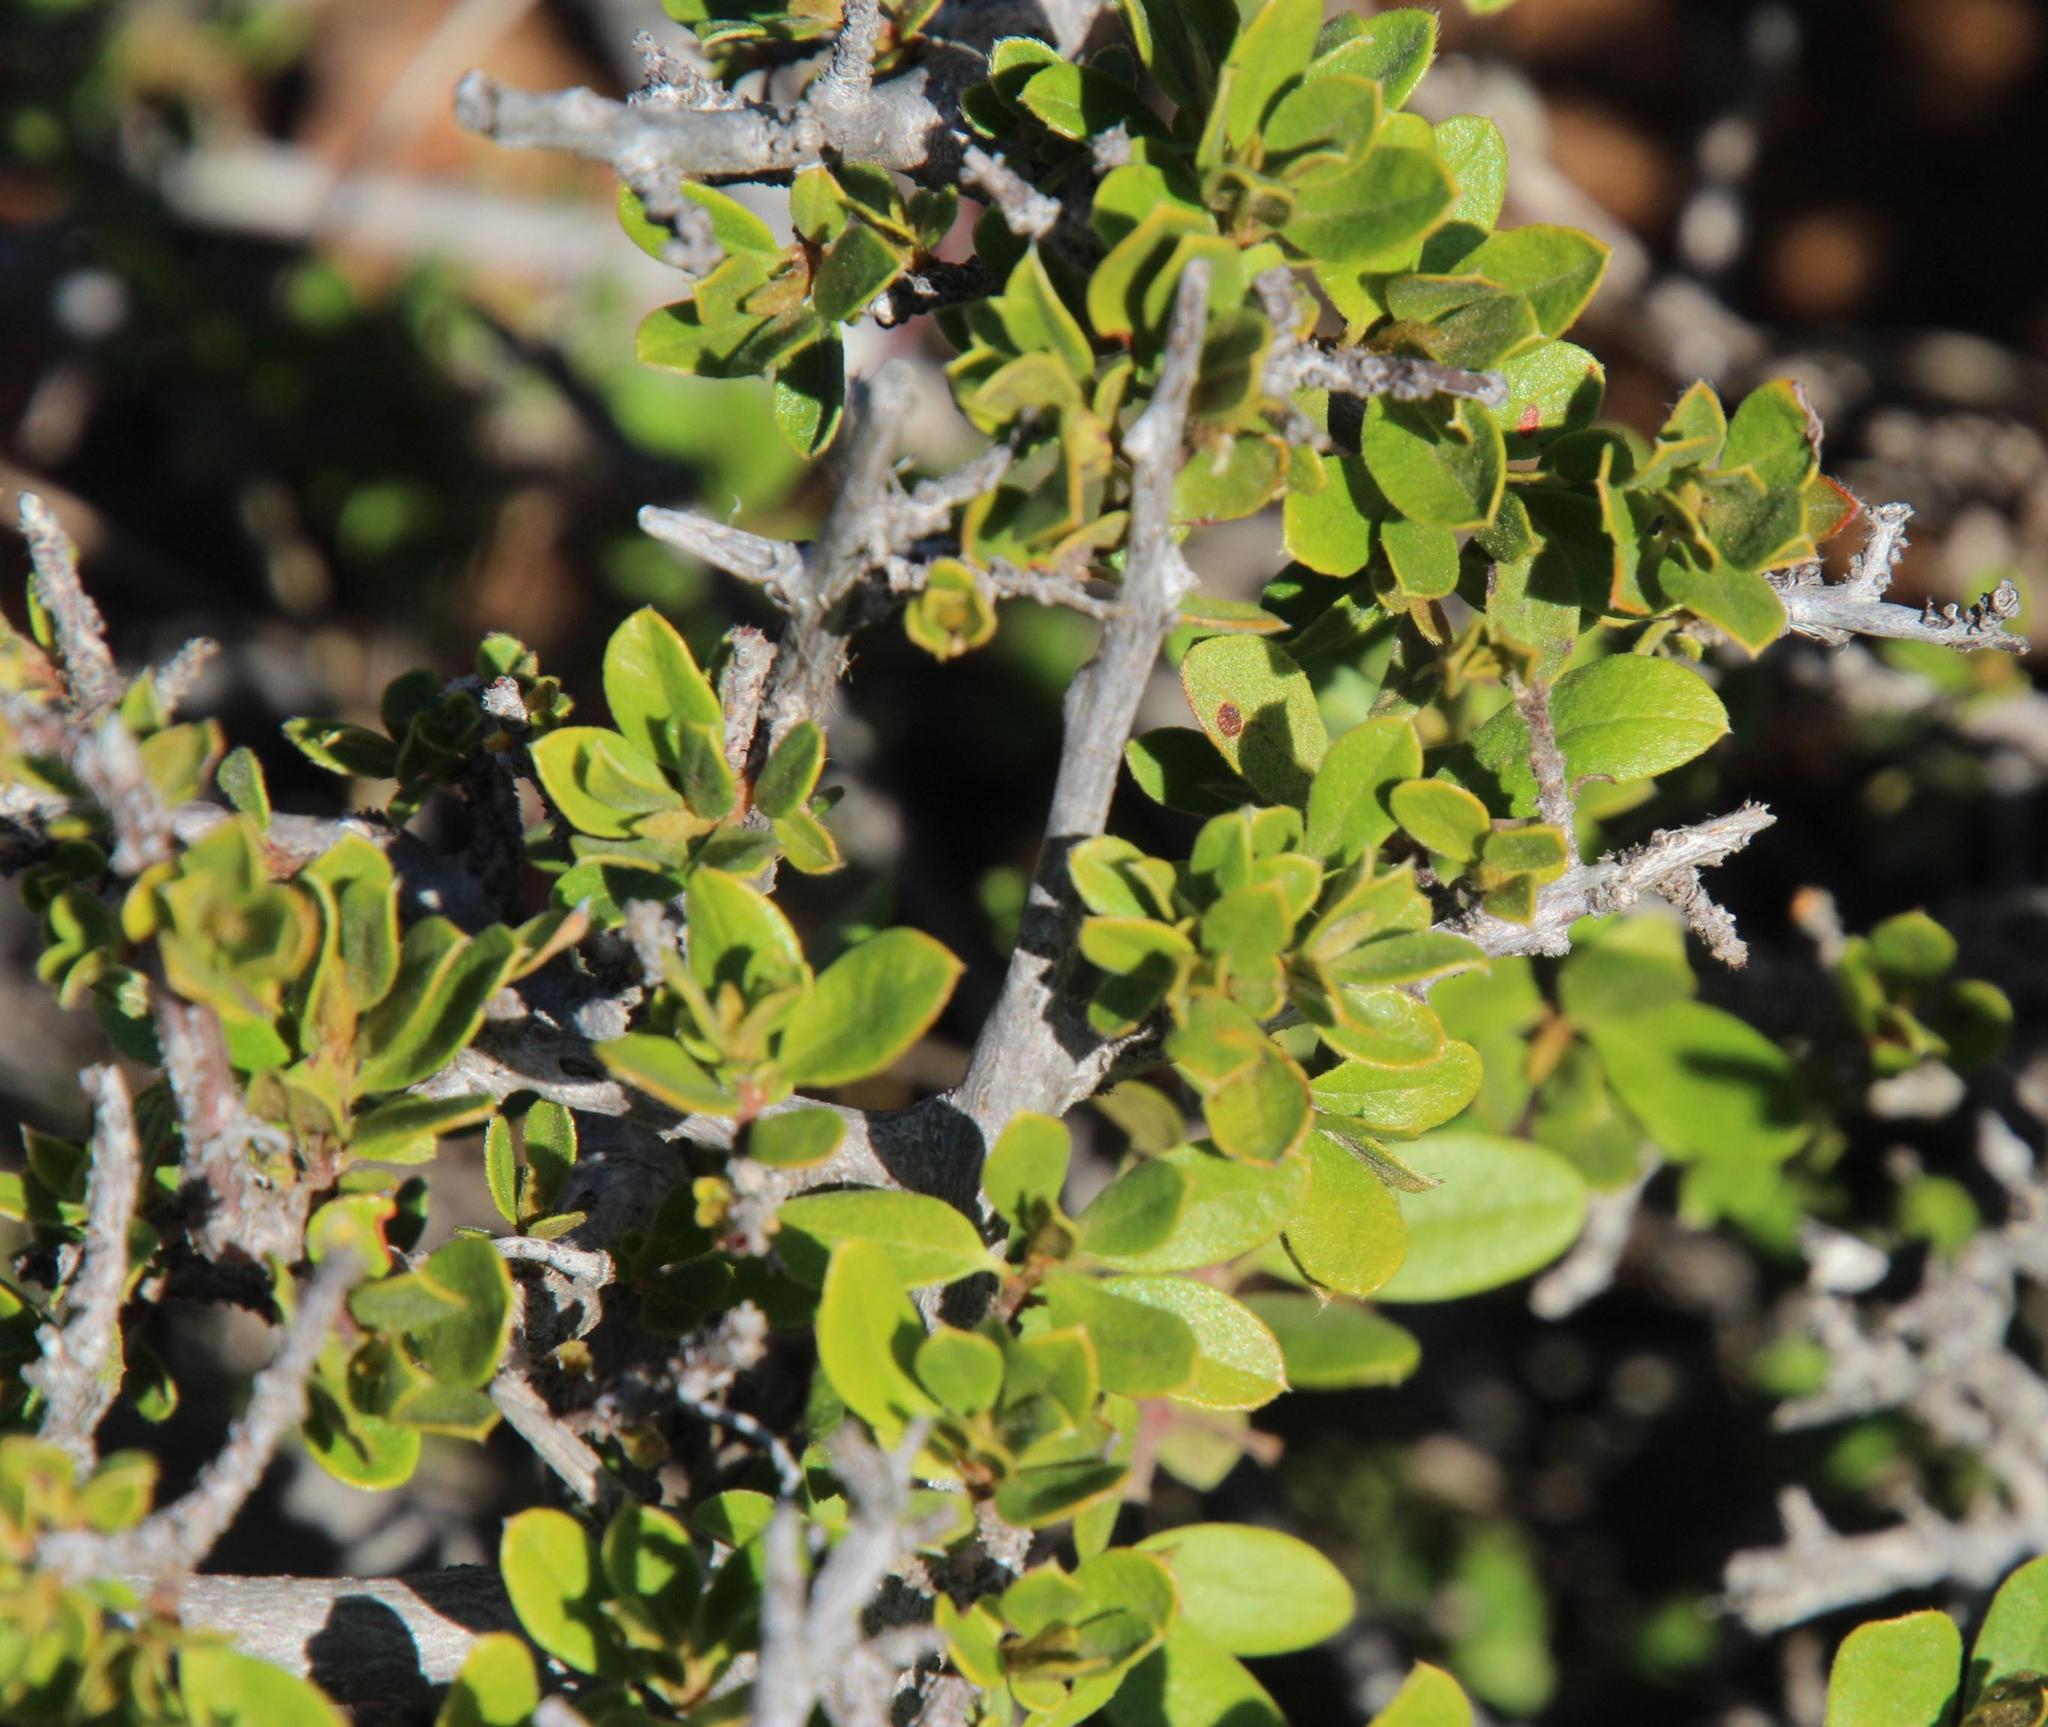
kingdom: Plantae
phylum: Tracheophyta
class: Magnoliopsida
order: Lamiales
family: Bignoniaceae
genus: Rhigozum
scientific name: Rhigozum obovatum
